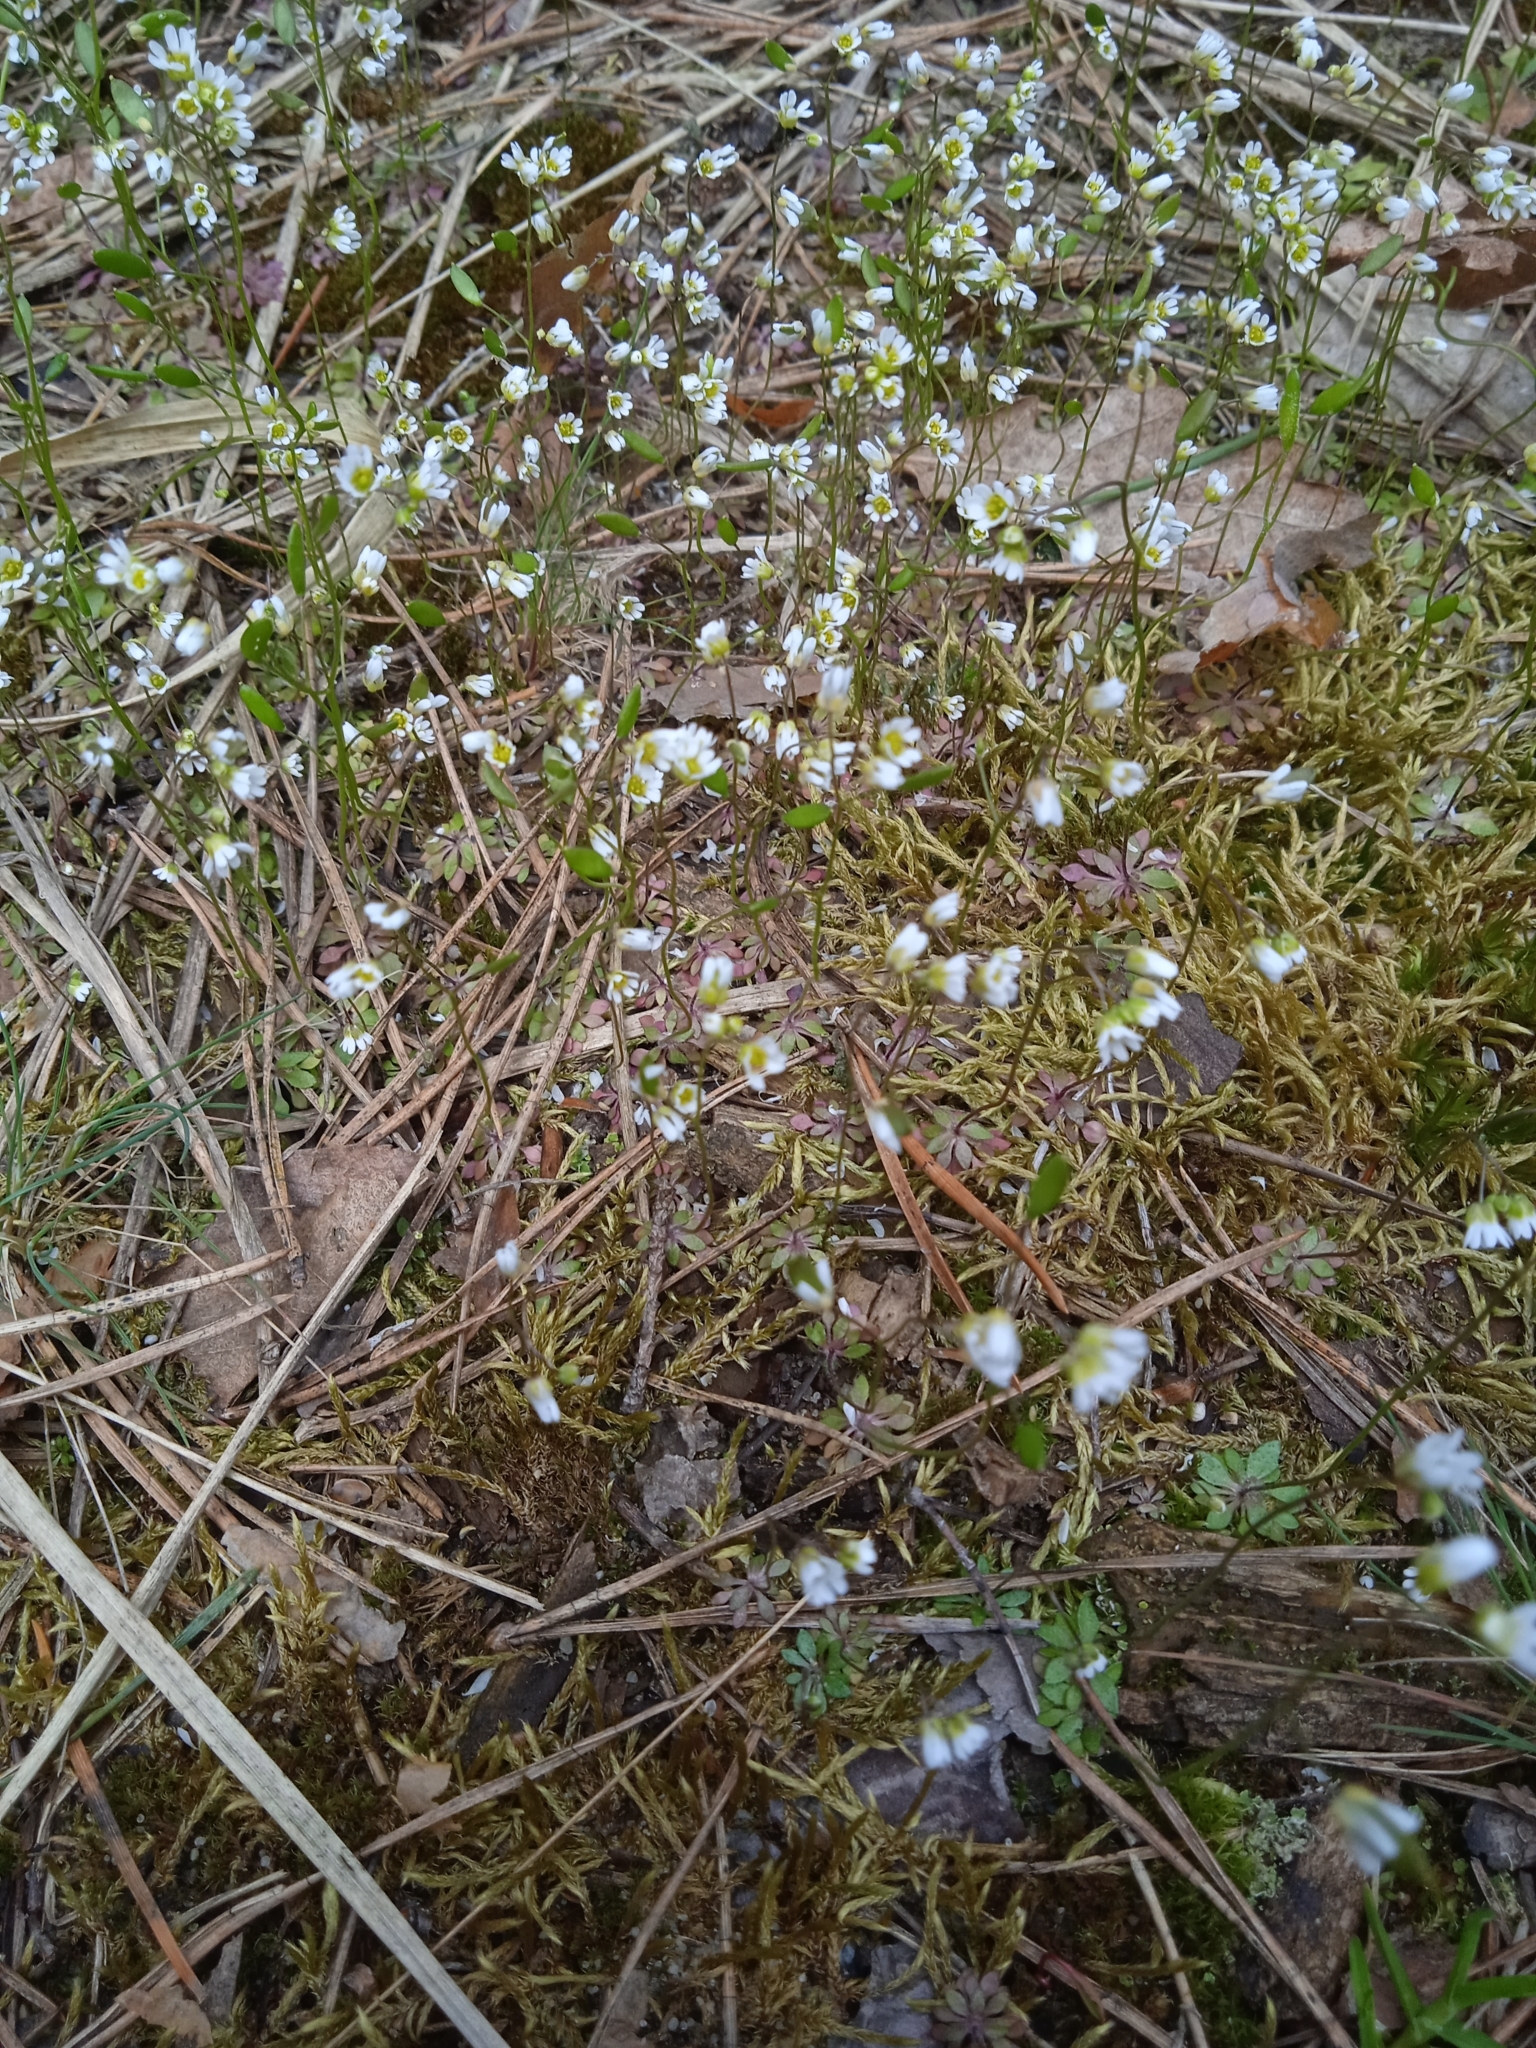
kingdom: Plantae
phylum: Tracheophyta
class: Magnoliopsida
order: Brassicales
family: Brassicaceae
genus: Draba
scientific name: Draba verna
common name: Spring draba
